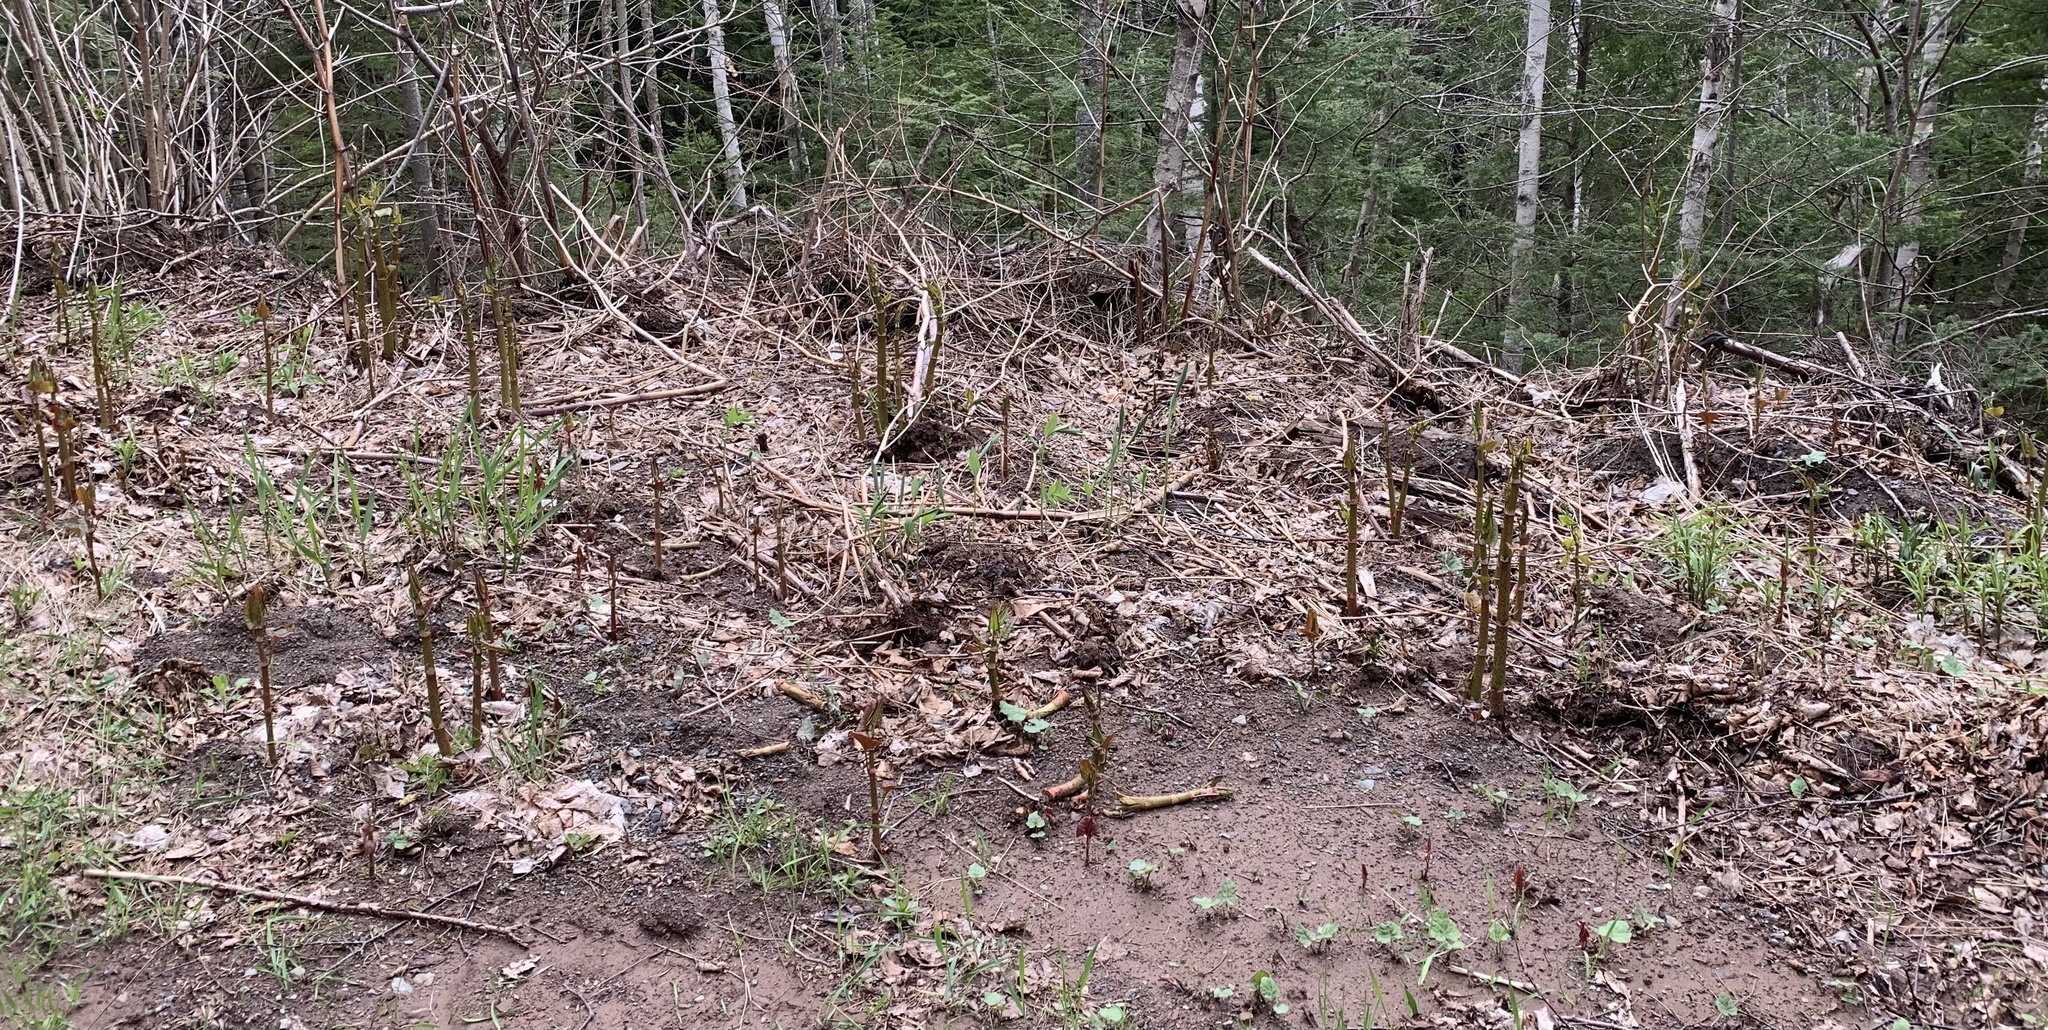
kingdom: Plantae
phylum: Tracheophyta
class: Magnoliopsida
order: Caryophyllales
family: Polygonaceae
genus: Reynoutria
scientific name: Reynoutria japonica
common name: Japanese knotweed
